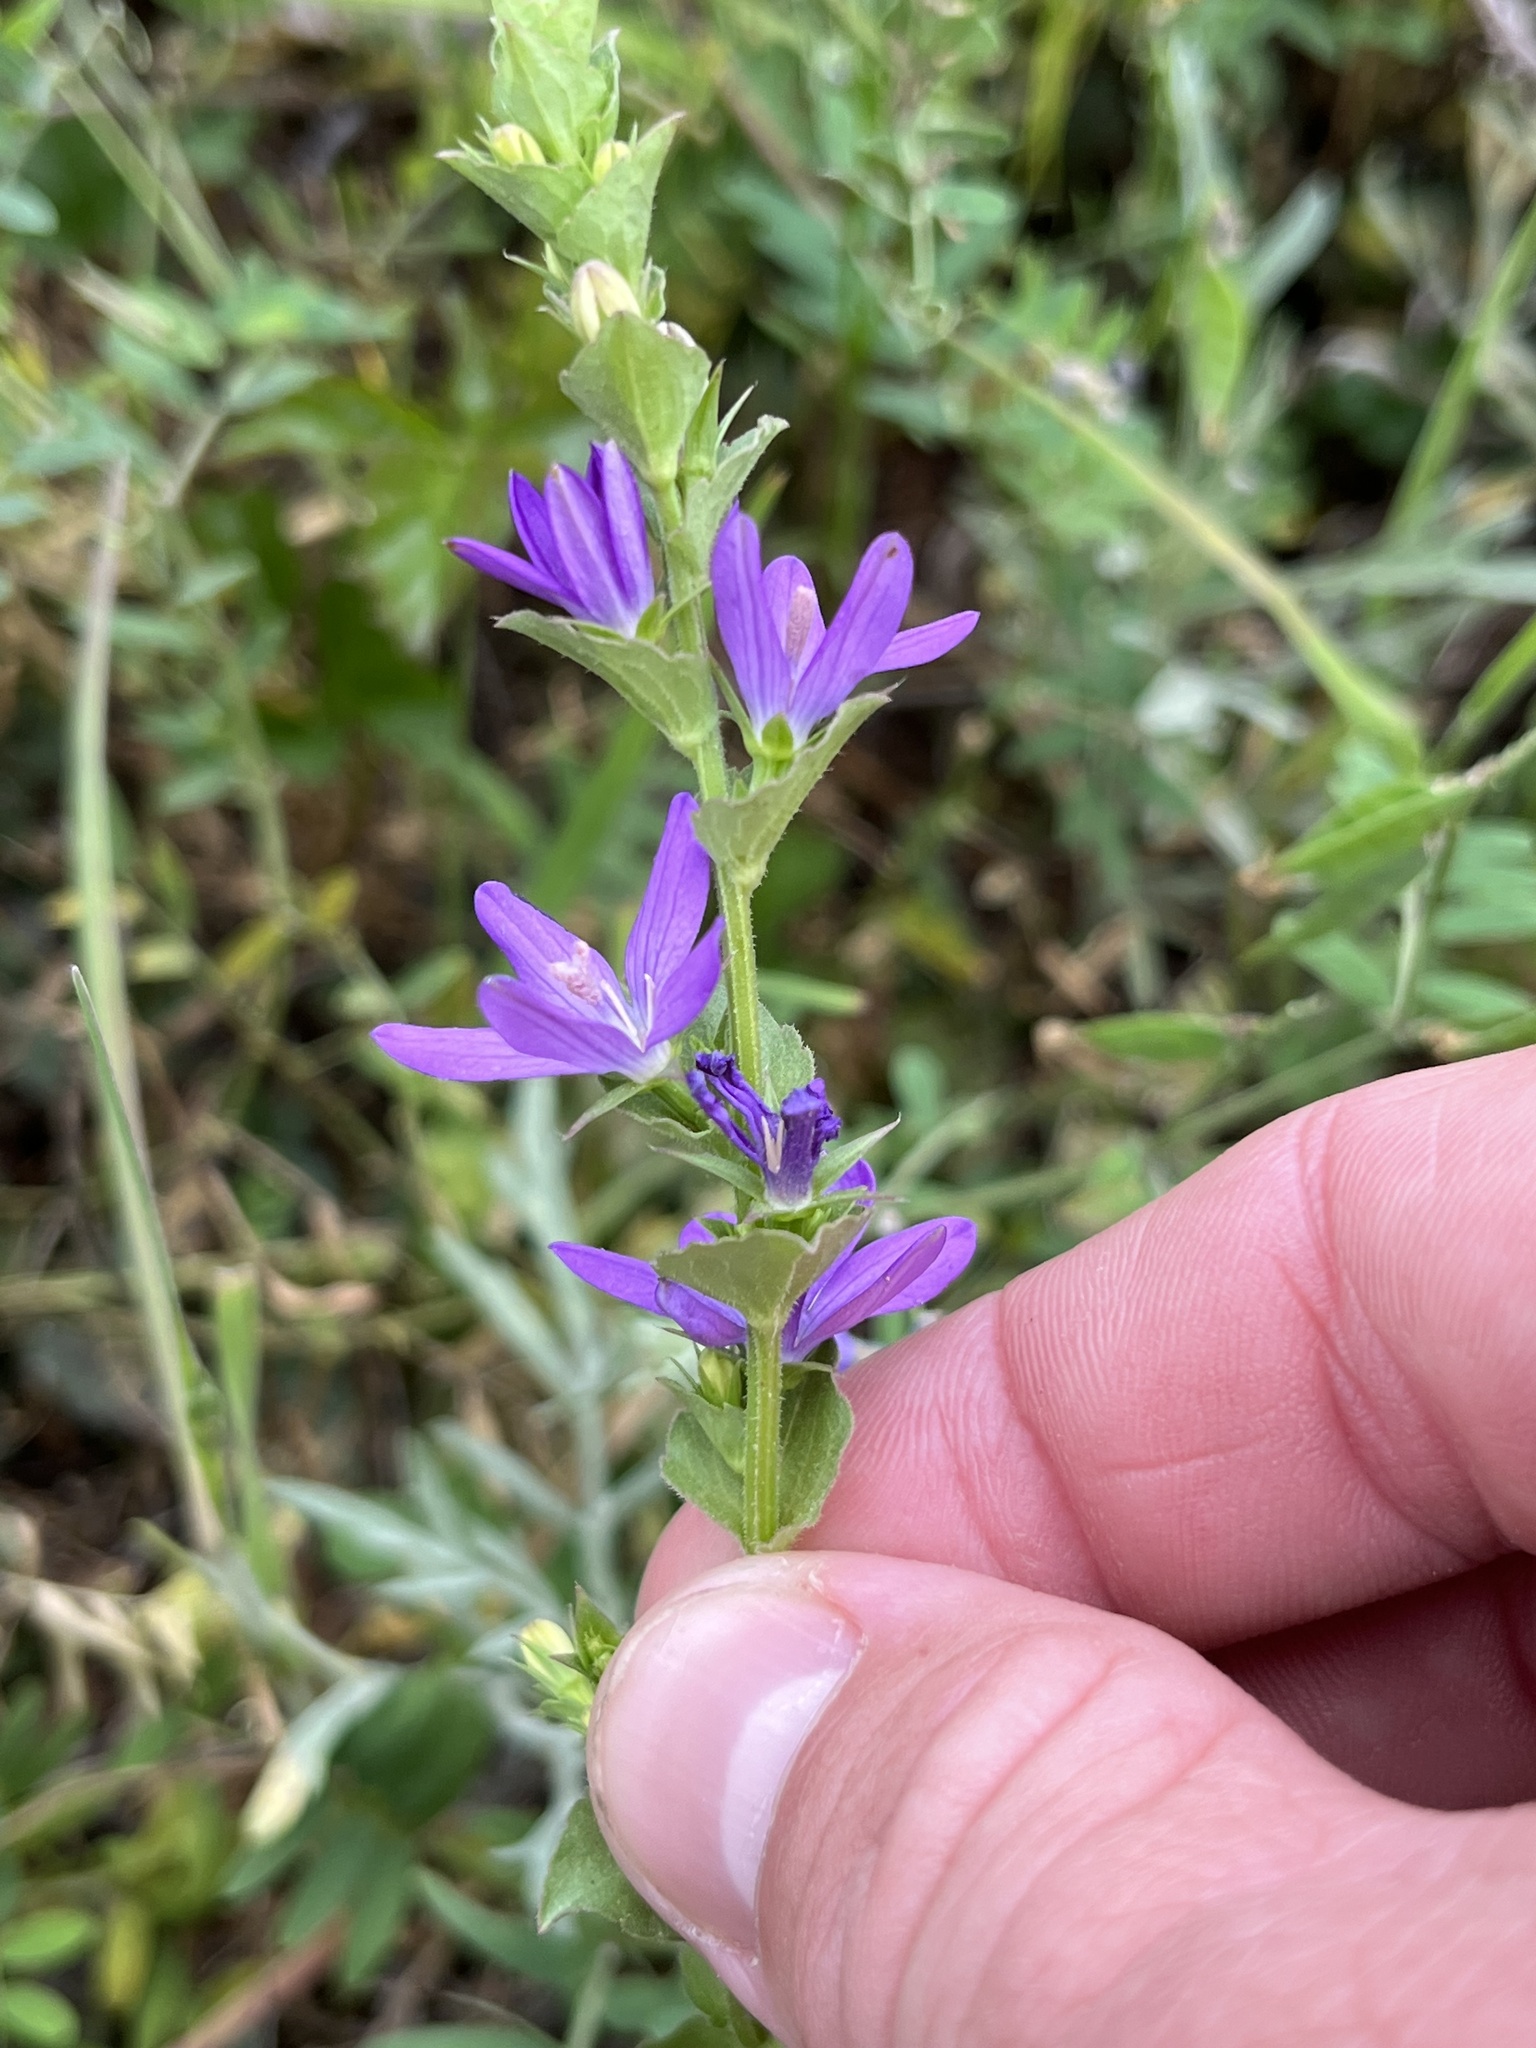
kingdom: Plantae
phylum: Tracheophyta
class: Magnoliopsida
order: Asterales
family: Campanulaceae
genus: Triodanis
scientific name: Triodanis perfoliata
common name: Clasping venus' looking-glass
